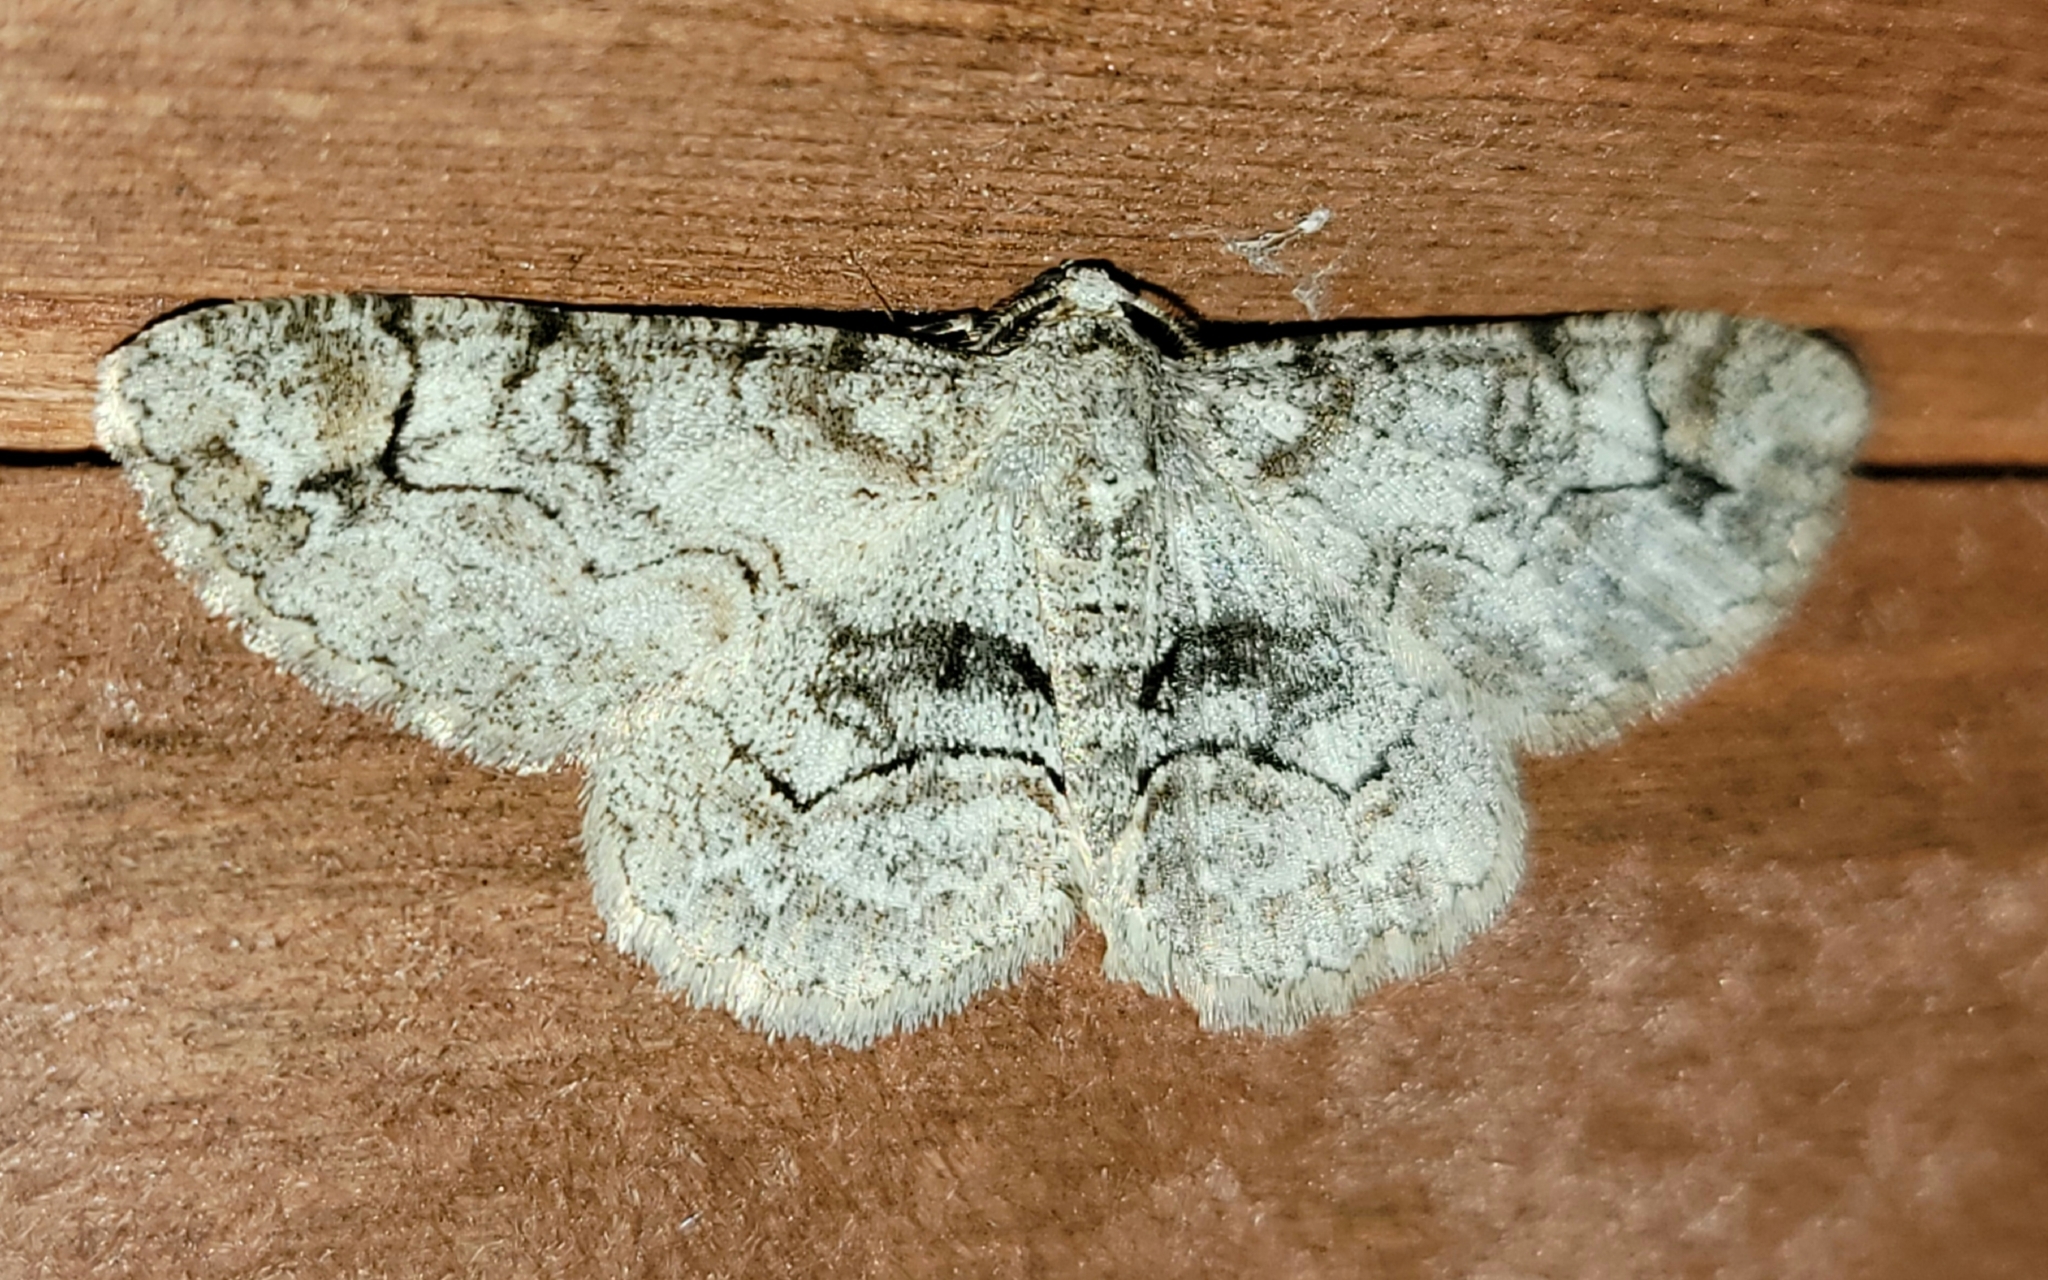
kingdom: Animalia
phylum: Arthropoda
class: Insecta
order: Lepidoptera
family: Geometridae
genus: Iridopsis
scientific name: Iridopsis larvaria
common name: Bent-line gray
